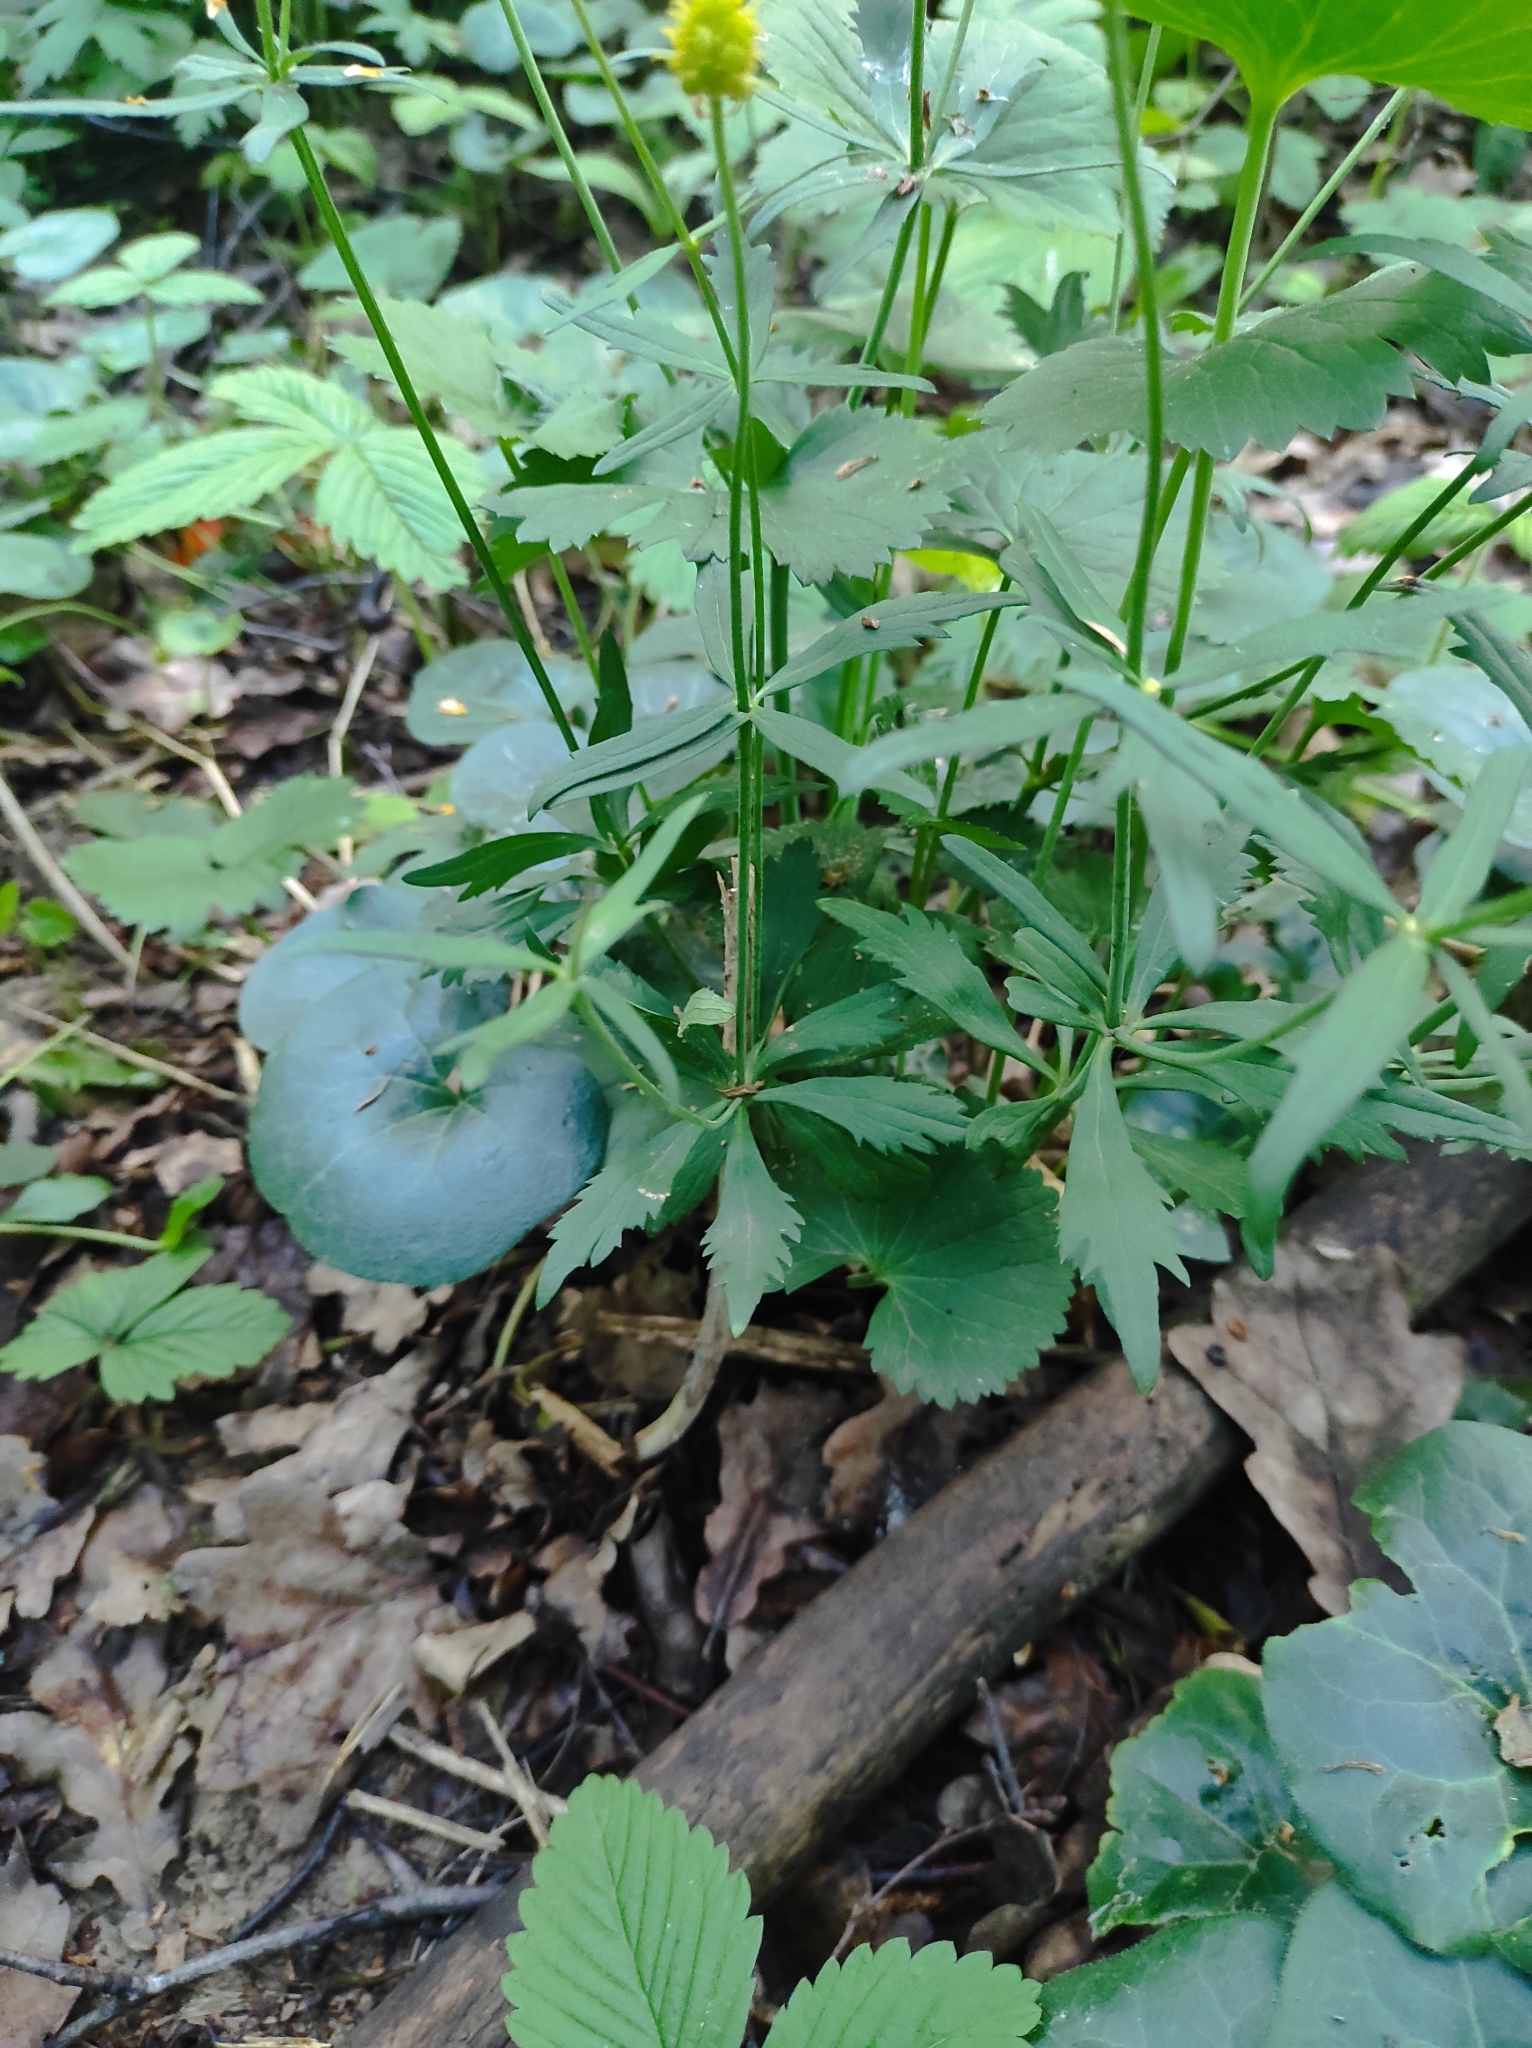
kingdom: Plantae
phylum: Tracheophyta
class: Magnoliopsida
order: Ranunculales
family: Ranunculaceae
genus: Ranunculus
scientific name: Ranunculus cassubicus
